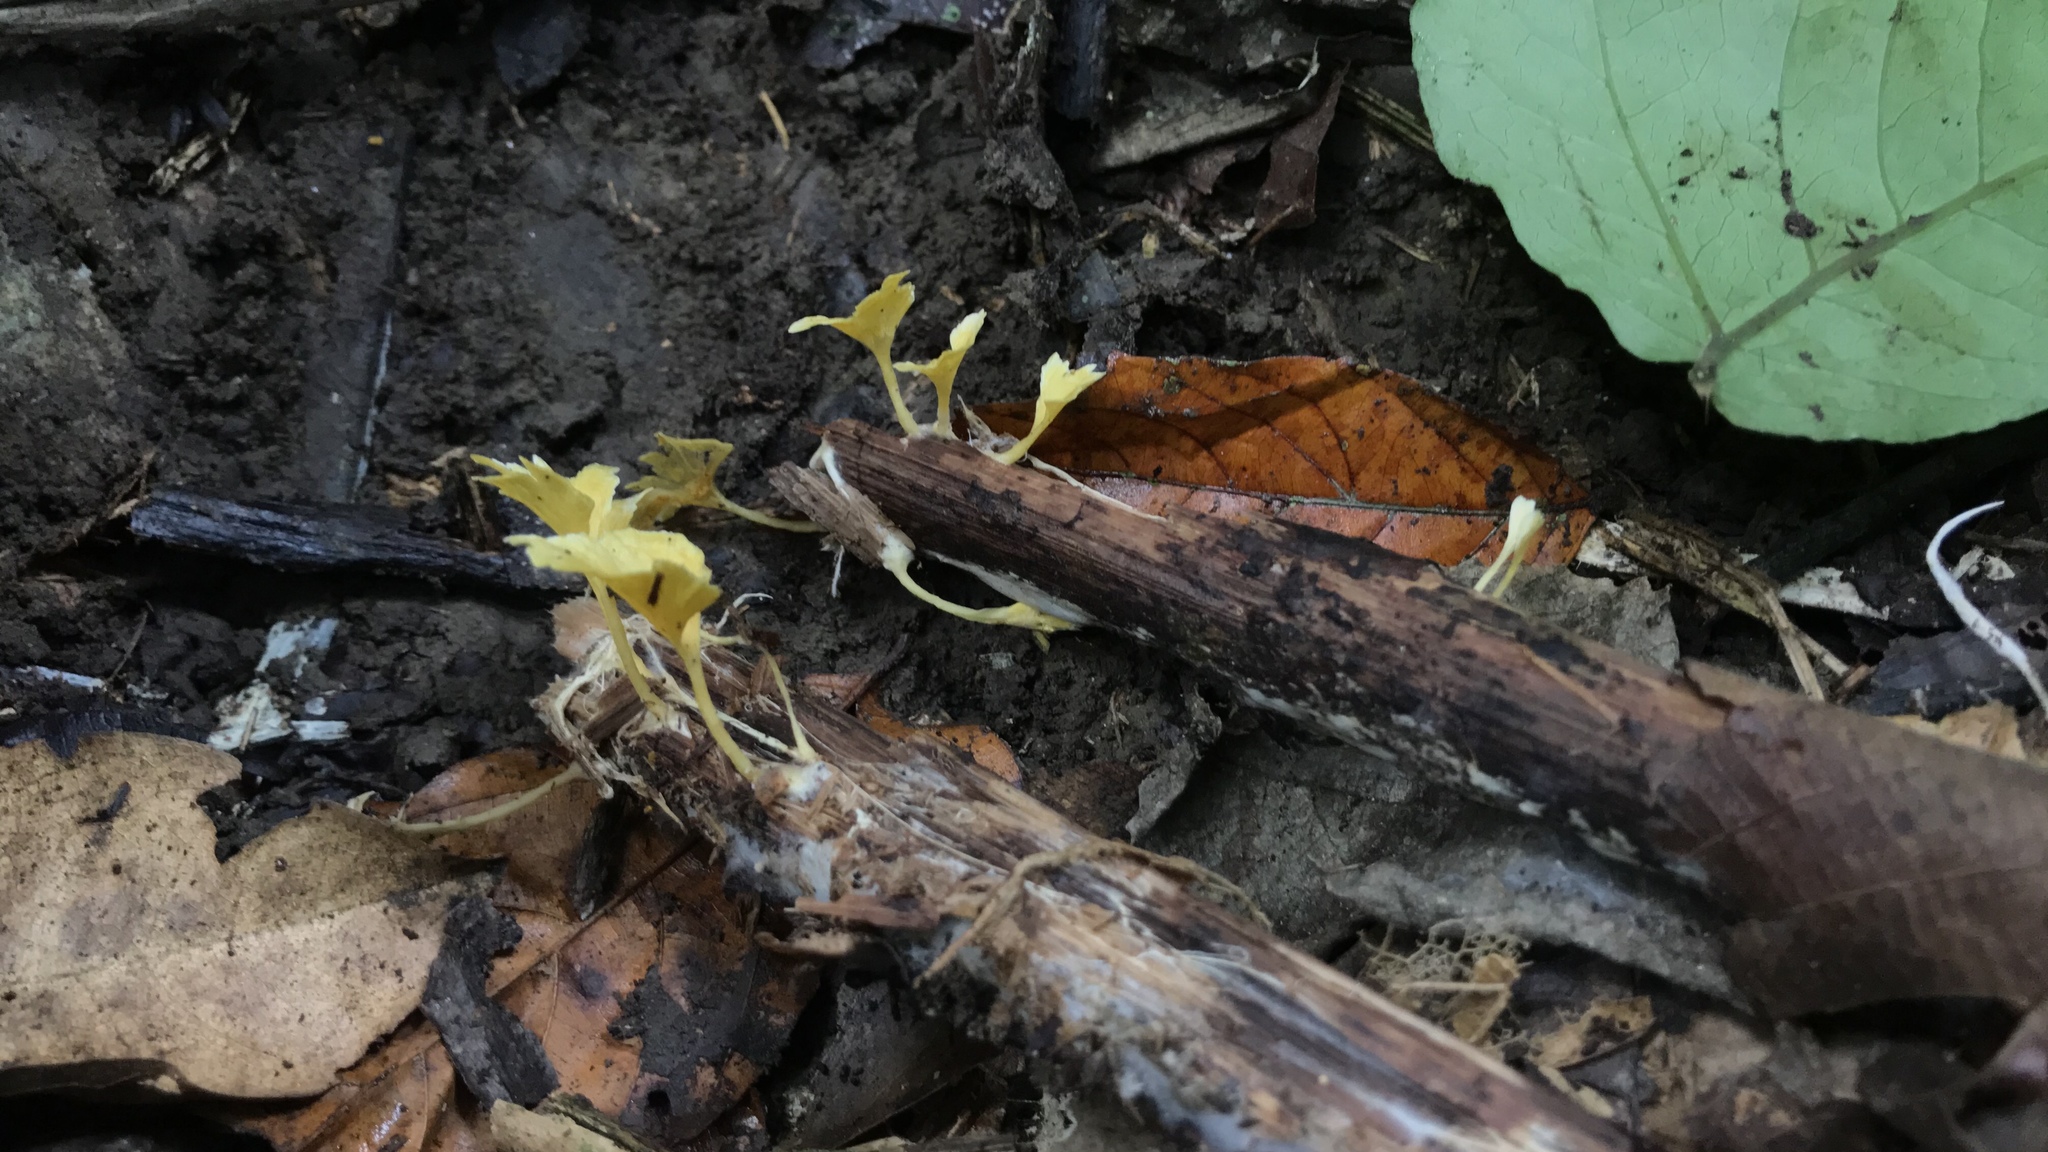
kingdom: Fungi
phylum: Basidiomycota
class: Agaricomycetes
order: Hymenochaetales
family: Rickenellaceae
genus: Cotylidia
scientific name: Cotylidia aurantiaca
